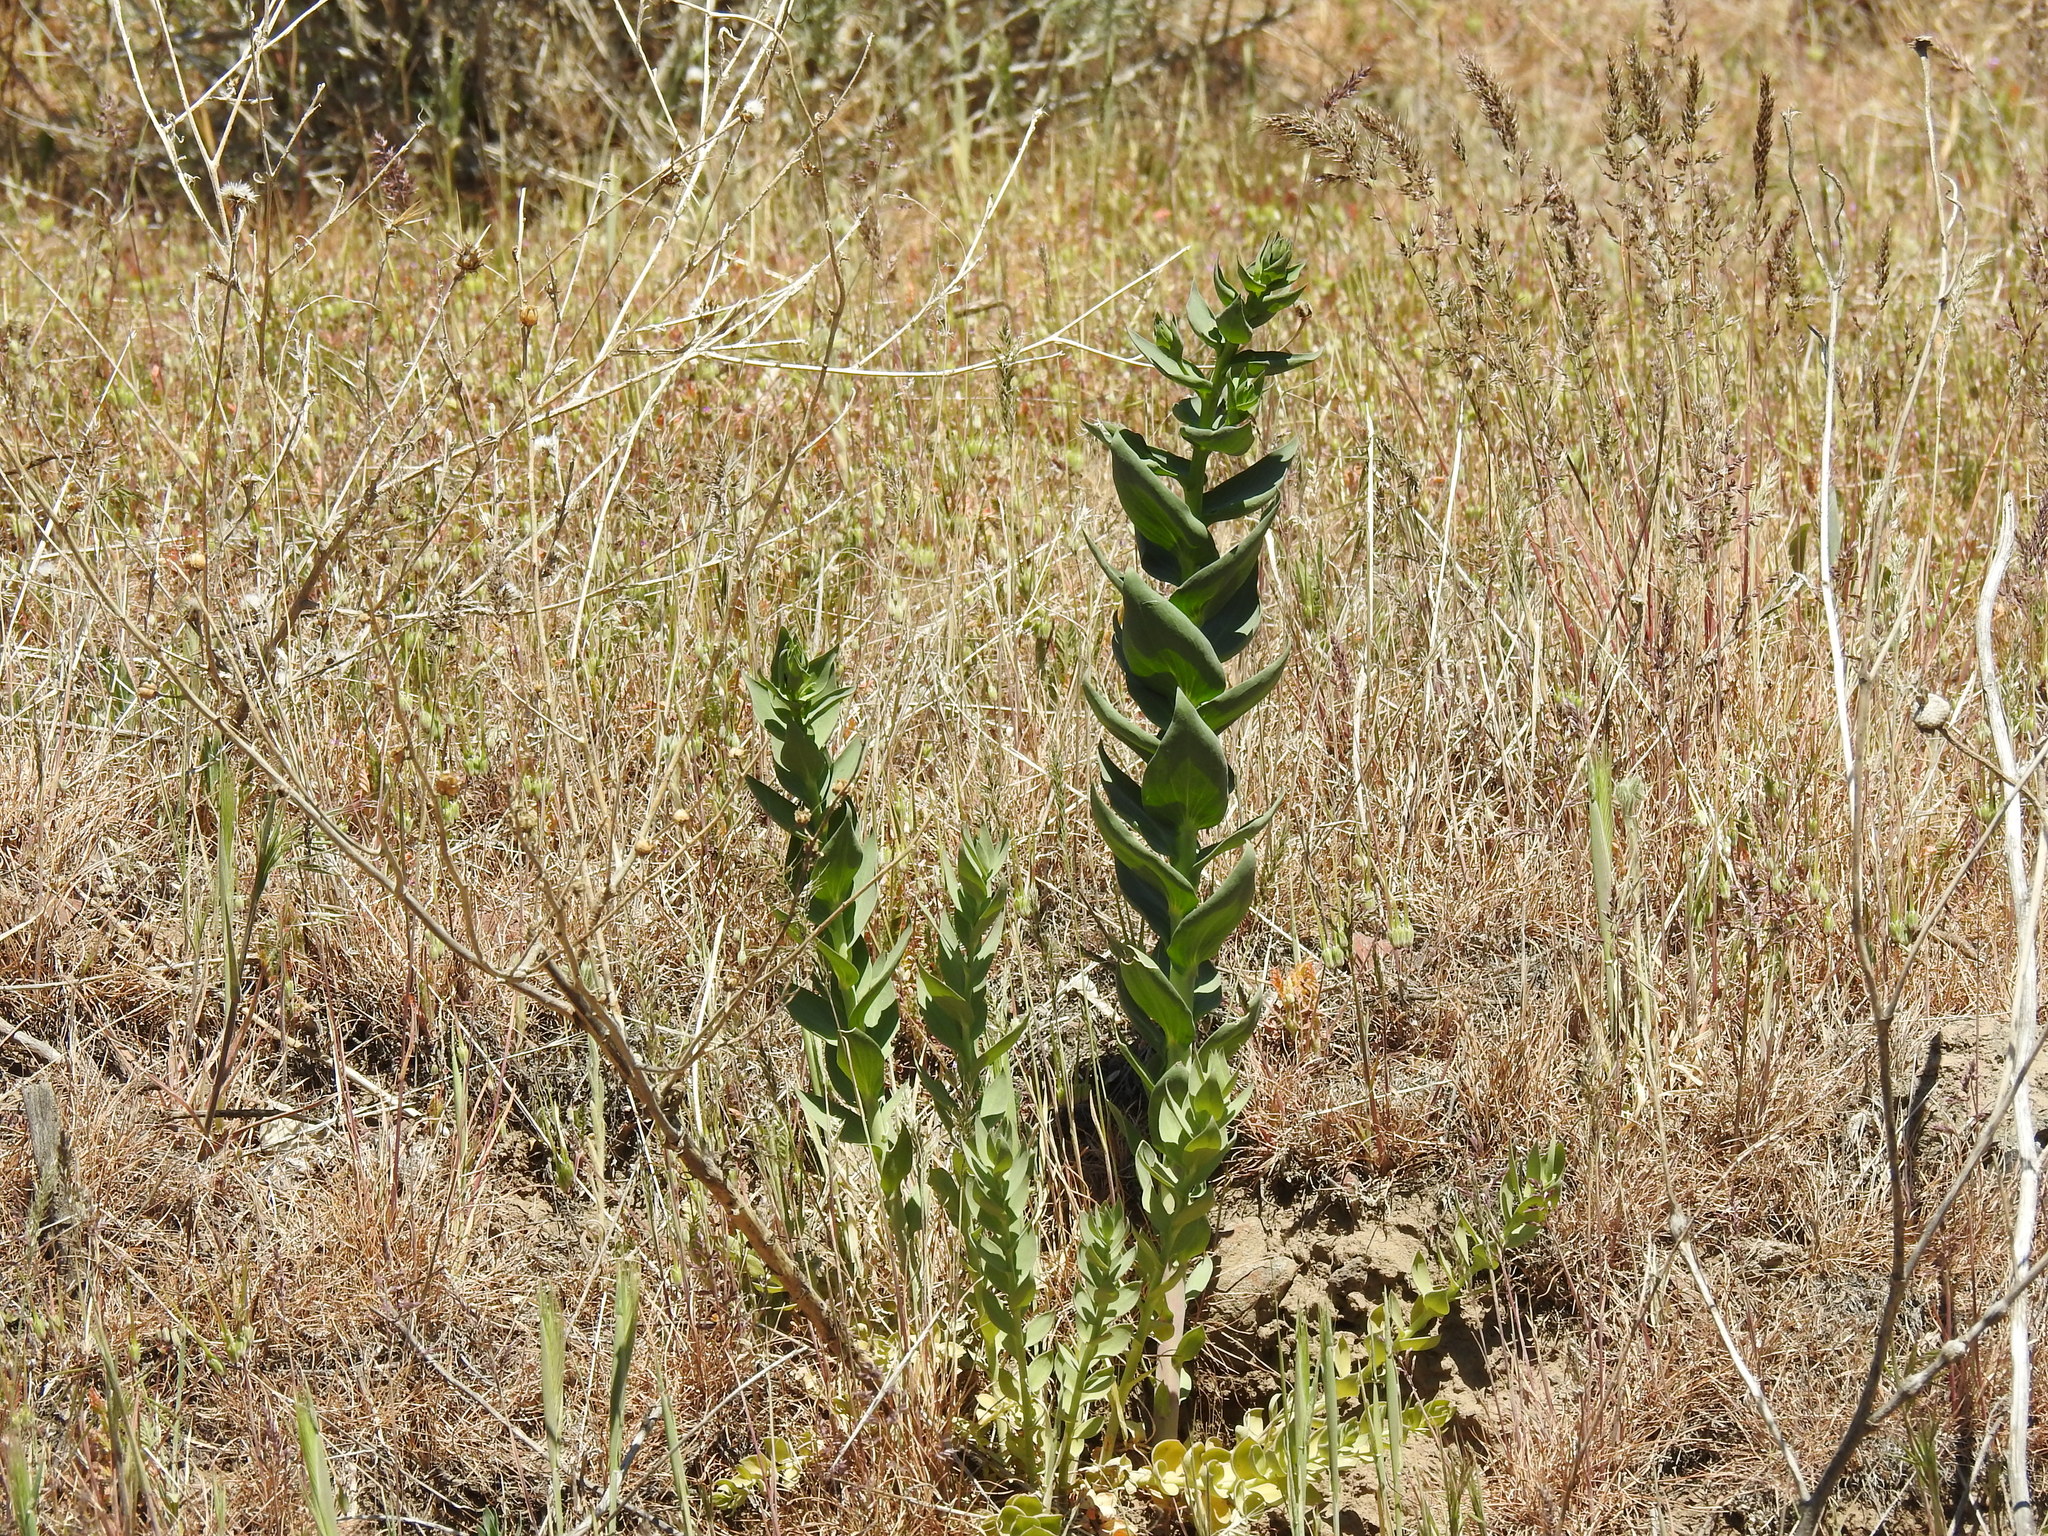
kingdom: Plantae
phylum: Tracheophyta
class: Magnoliopsida
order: Lamiales
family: Plantaginaceae
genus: Linaria
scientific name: Linaria dalmatica
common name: Dalmatian toadflax
